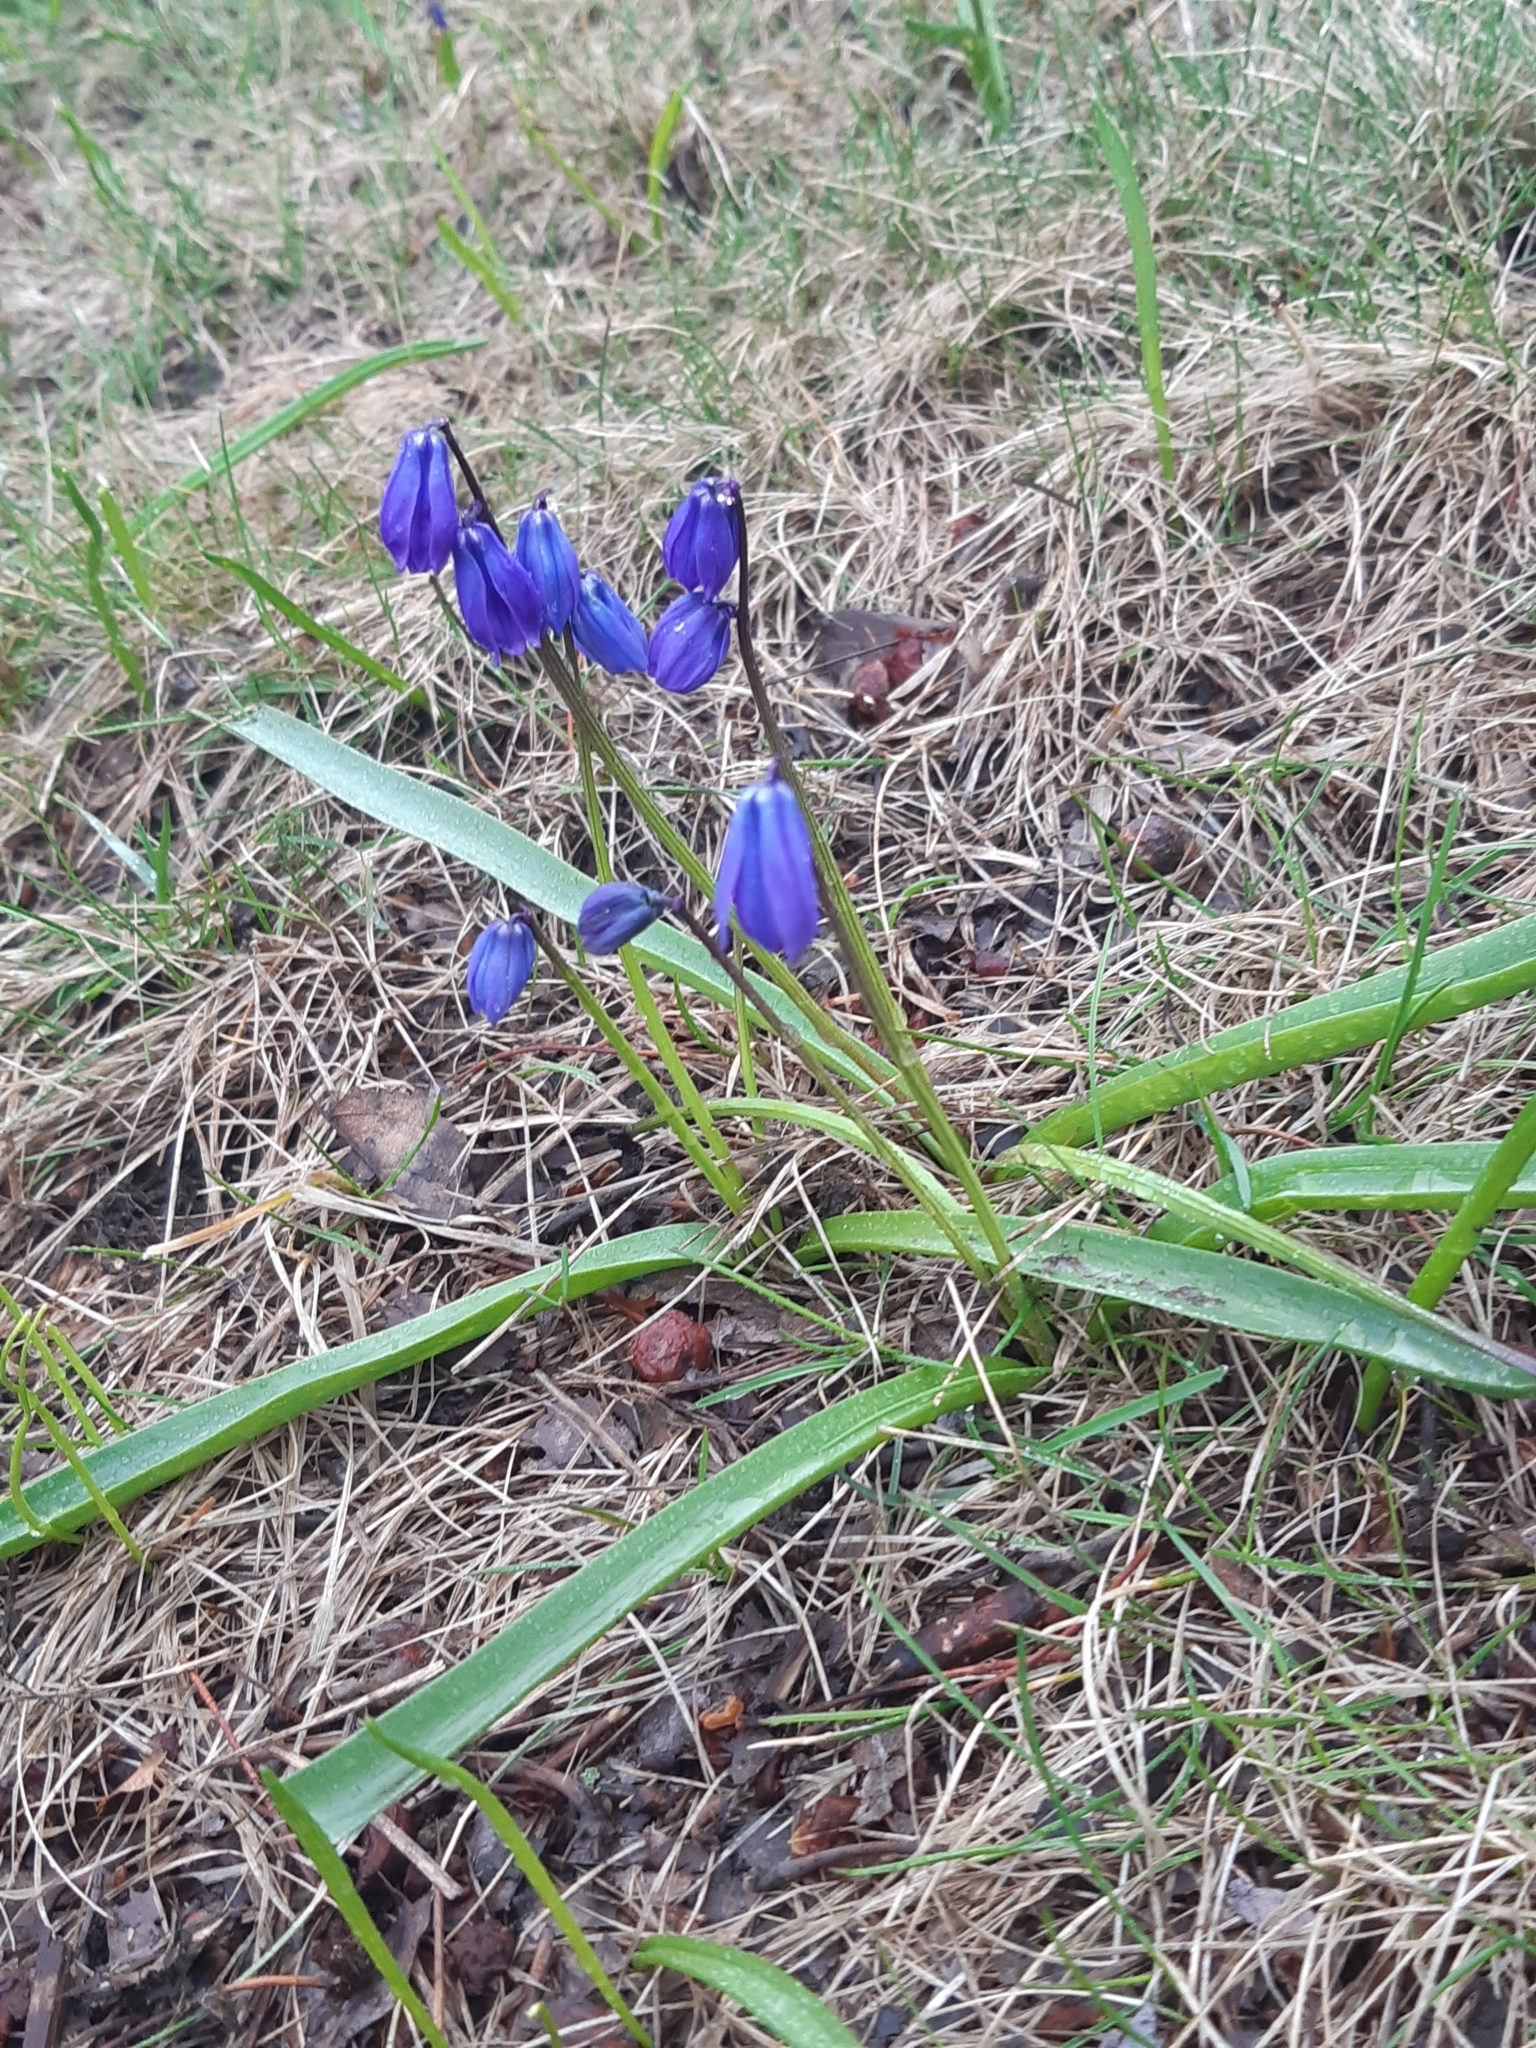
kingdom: Plantae
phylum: Tracheophyta
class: Liliopsida
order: Asparagales
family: Asparagaceae
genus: Scilla
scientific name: Scilla siberica
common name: Siberian squill
